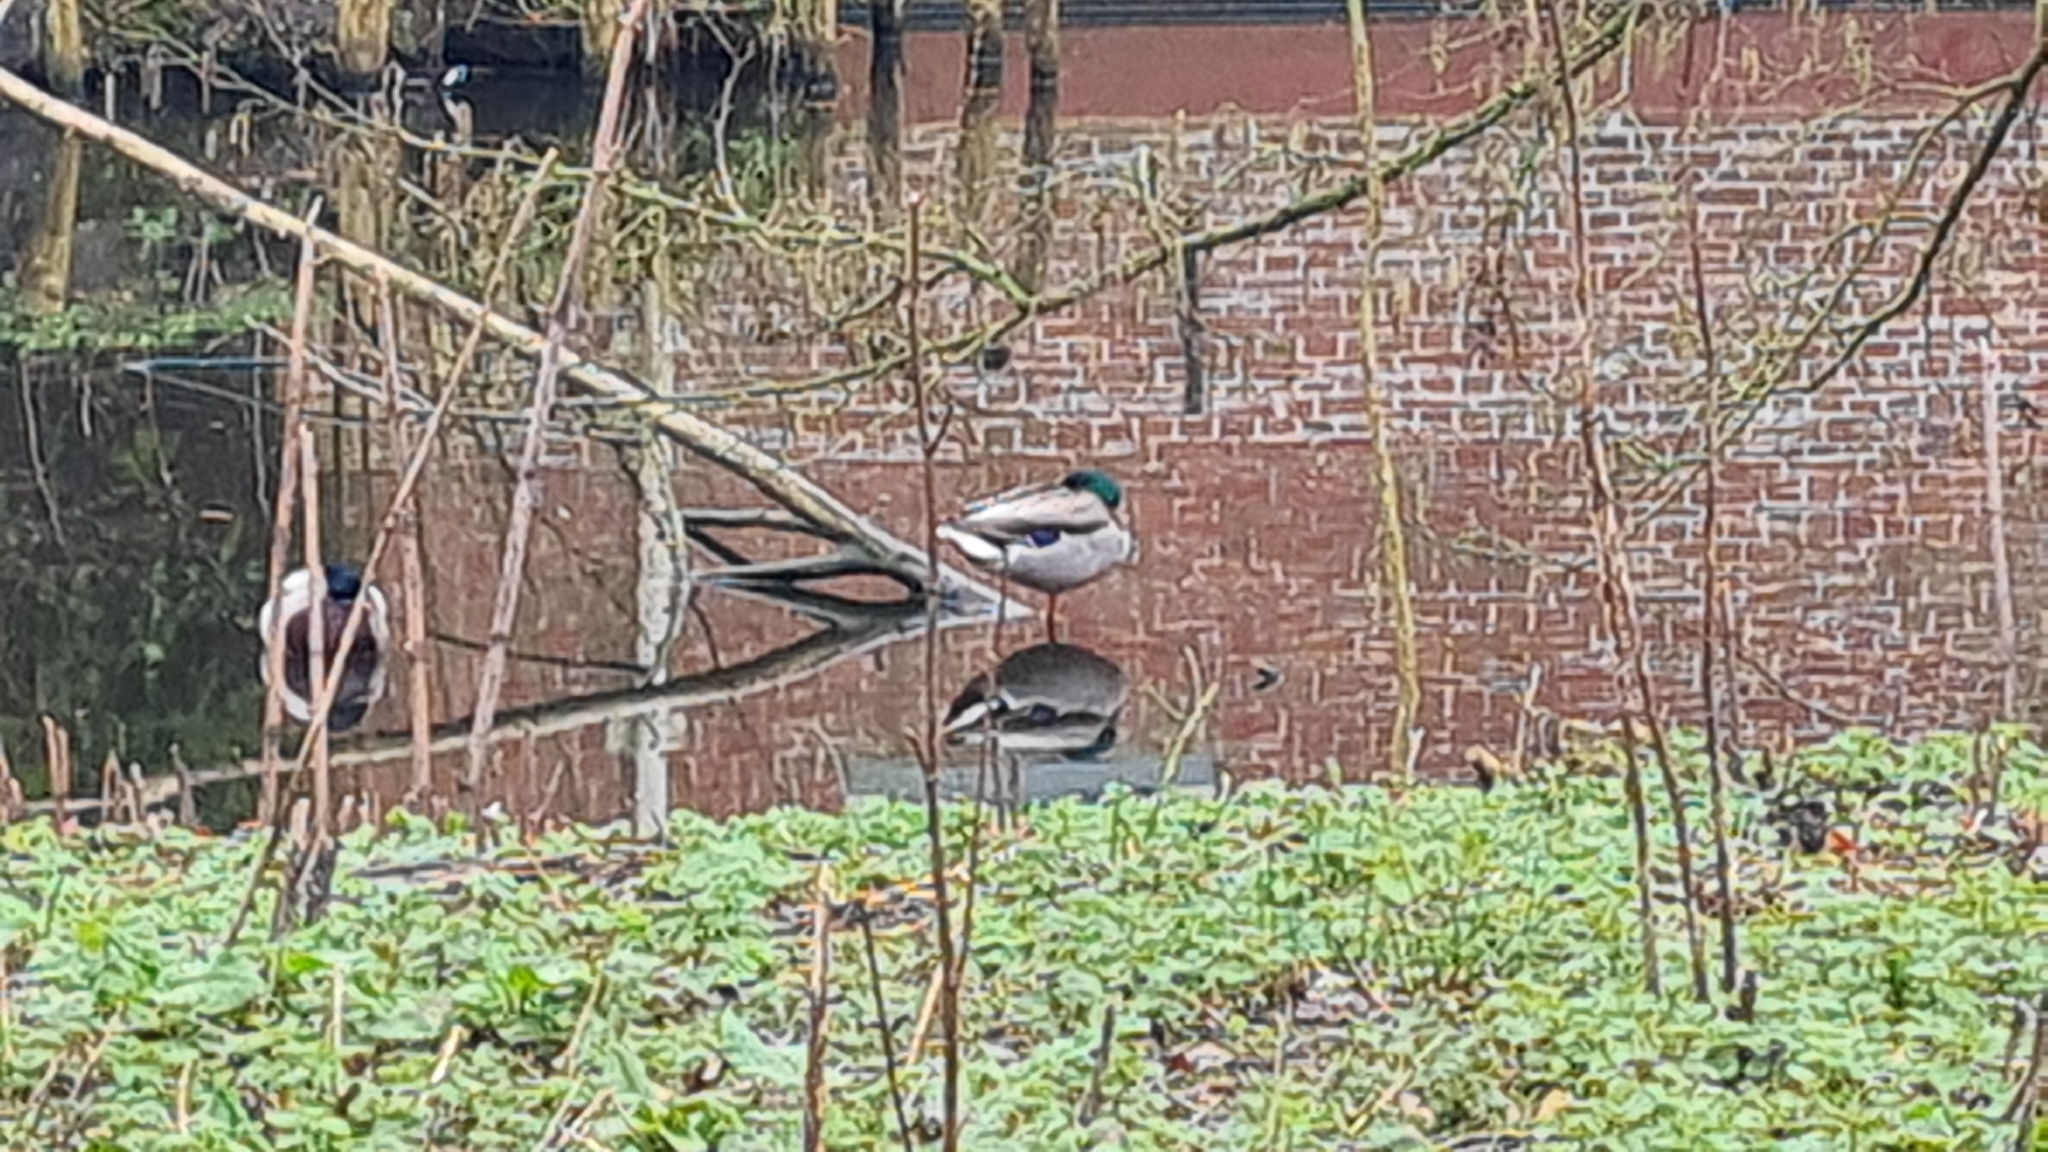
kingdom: Animalia
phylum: Chordata
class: Aves
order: Anseriformes
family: Anatidae
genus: Anas
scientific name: Anas platyrhynchos
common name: Mallard
